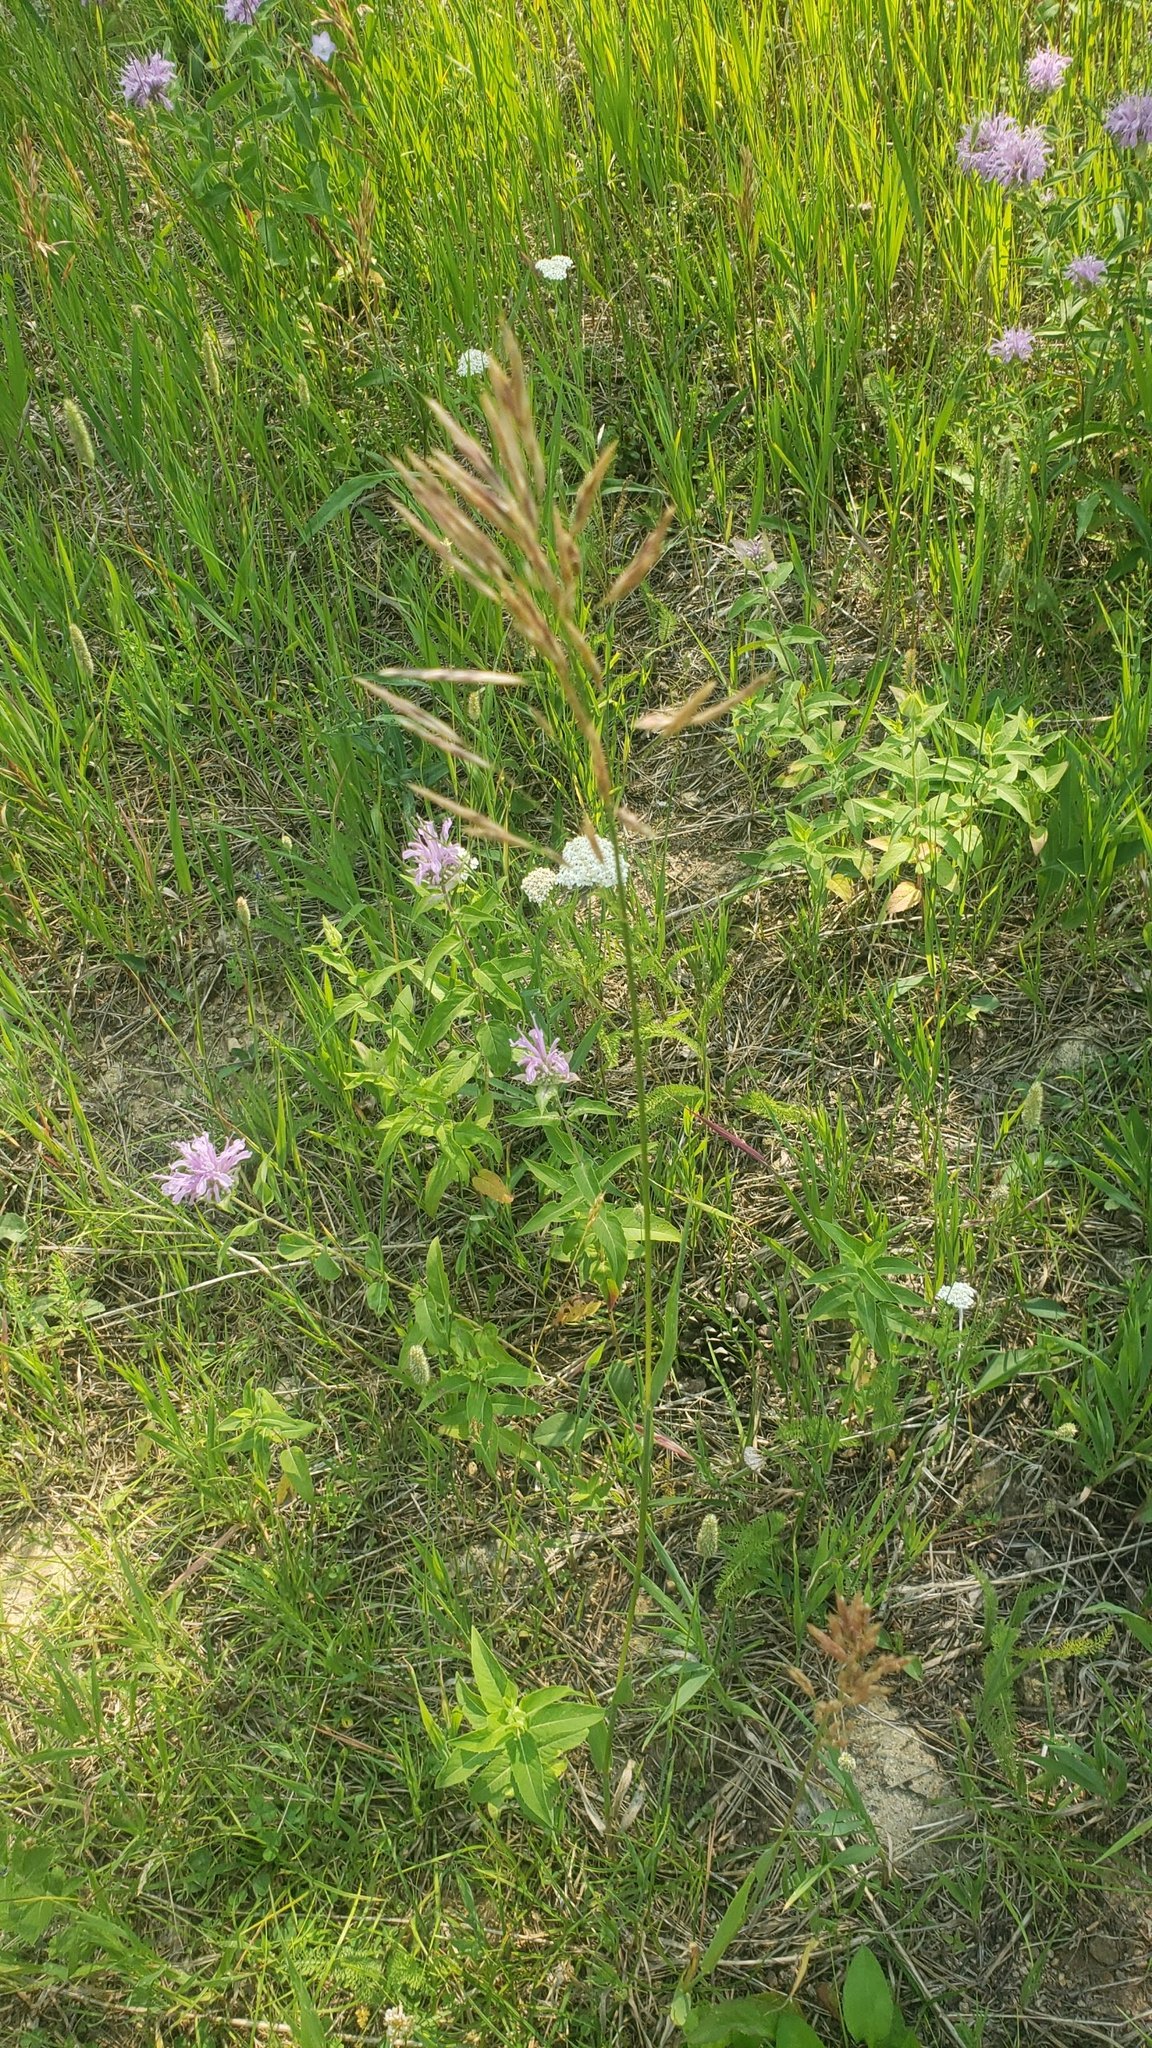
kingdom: Plantae
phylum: Tracheophyta
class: Liliopsida
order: Poales
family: Poaceae
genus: Bromus
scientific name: Bromus inermis
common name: Smooth brome
